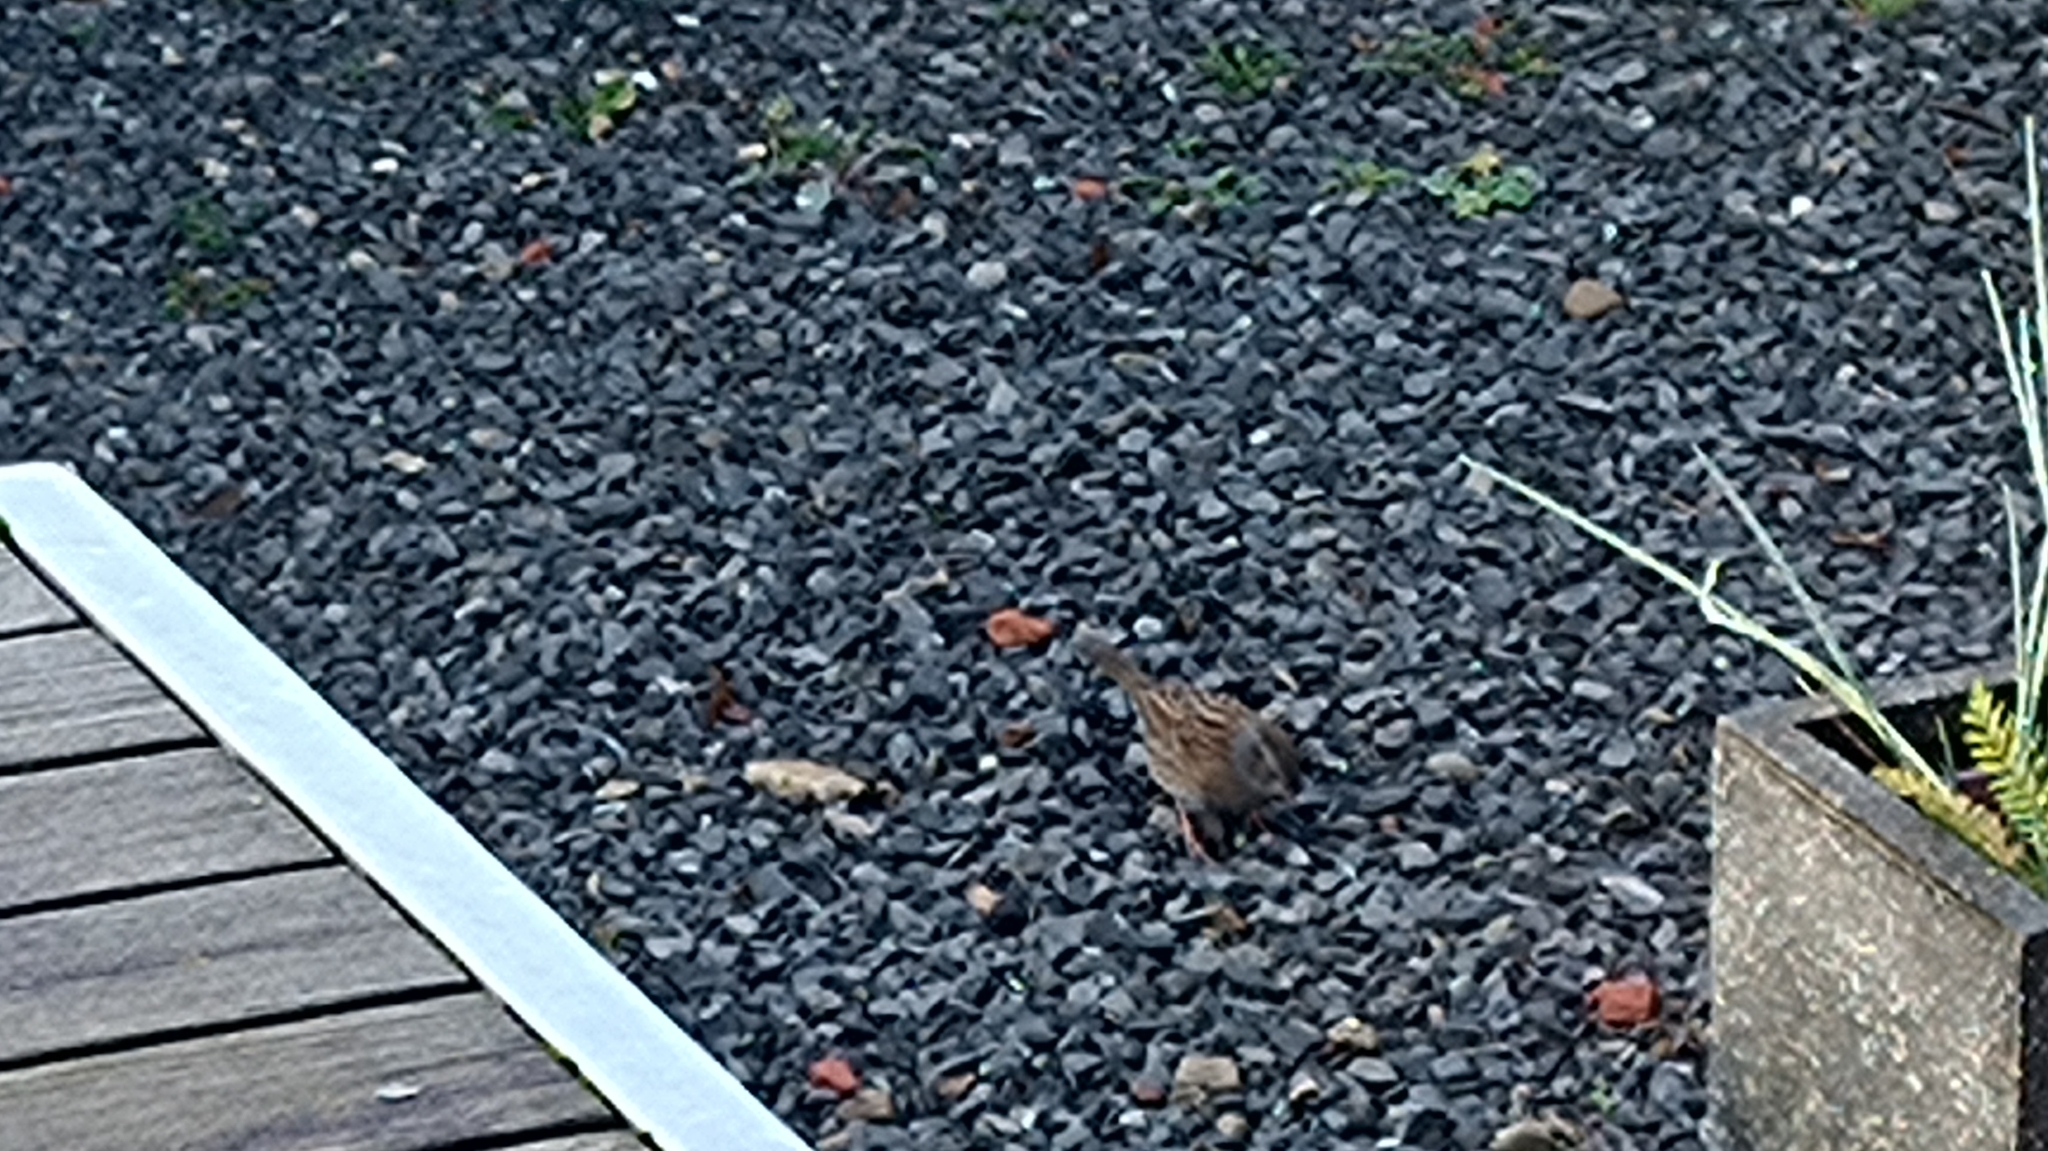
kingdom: Animalia
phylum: Chordata
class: Aves
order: Passeriformes
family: Prunellidae
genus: Prunella
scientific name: Prunella modularis
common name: Dunnock
